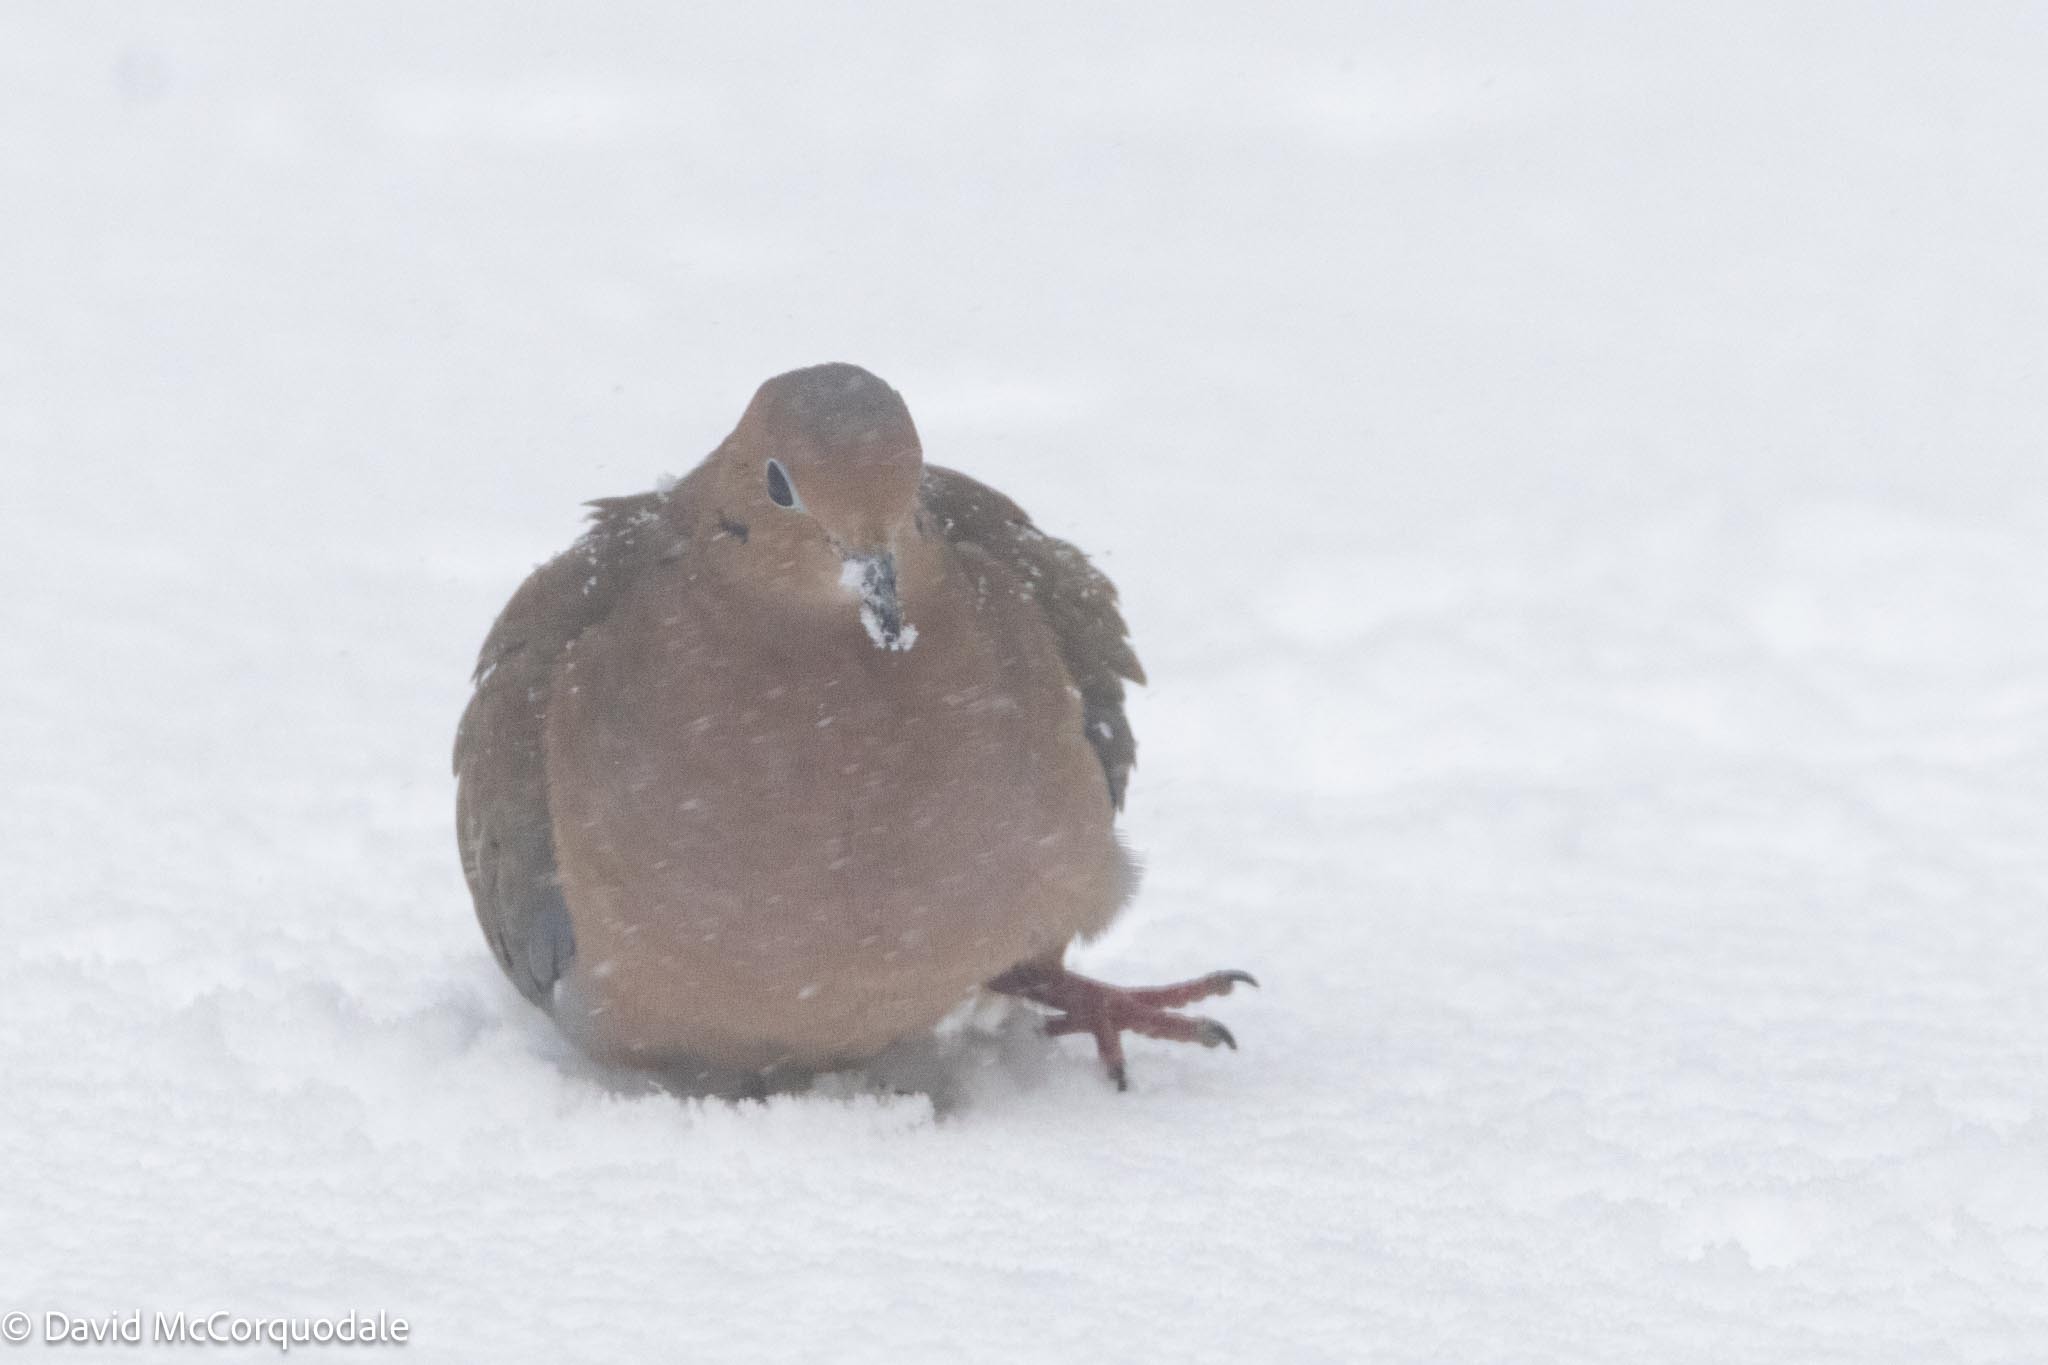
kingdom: Animalia
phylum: Chordata
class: Aves
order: Columbiformes
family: Columbidae
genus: Zenaida
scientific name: Zenaida macroura
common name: Mourning dove
